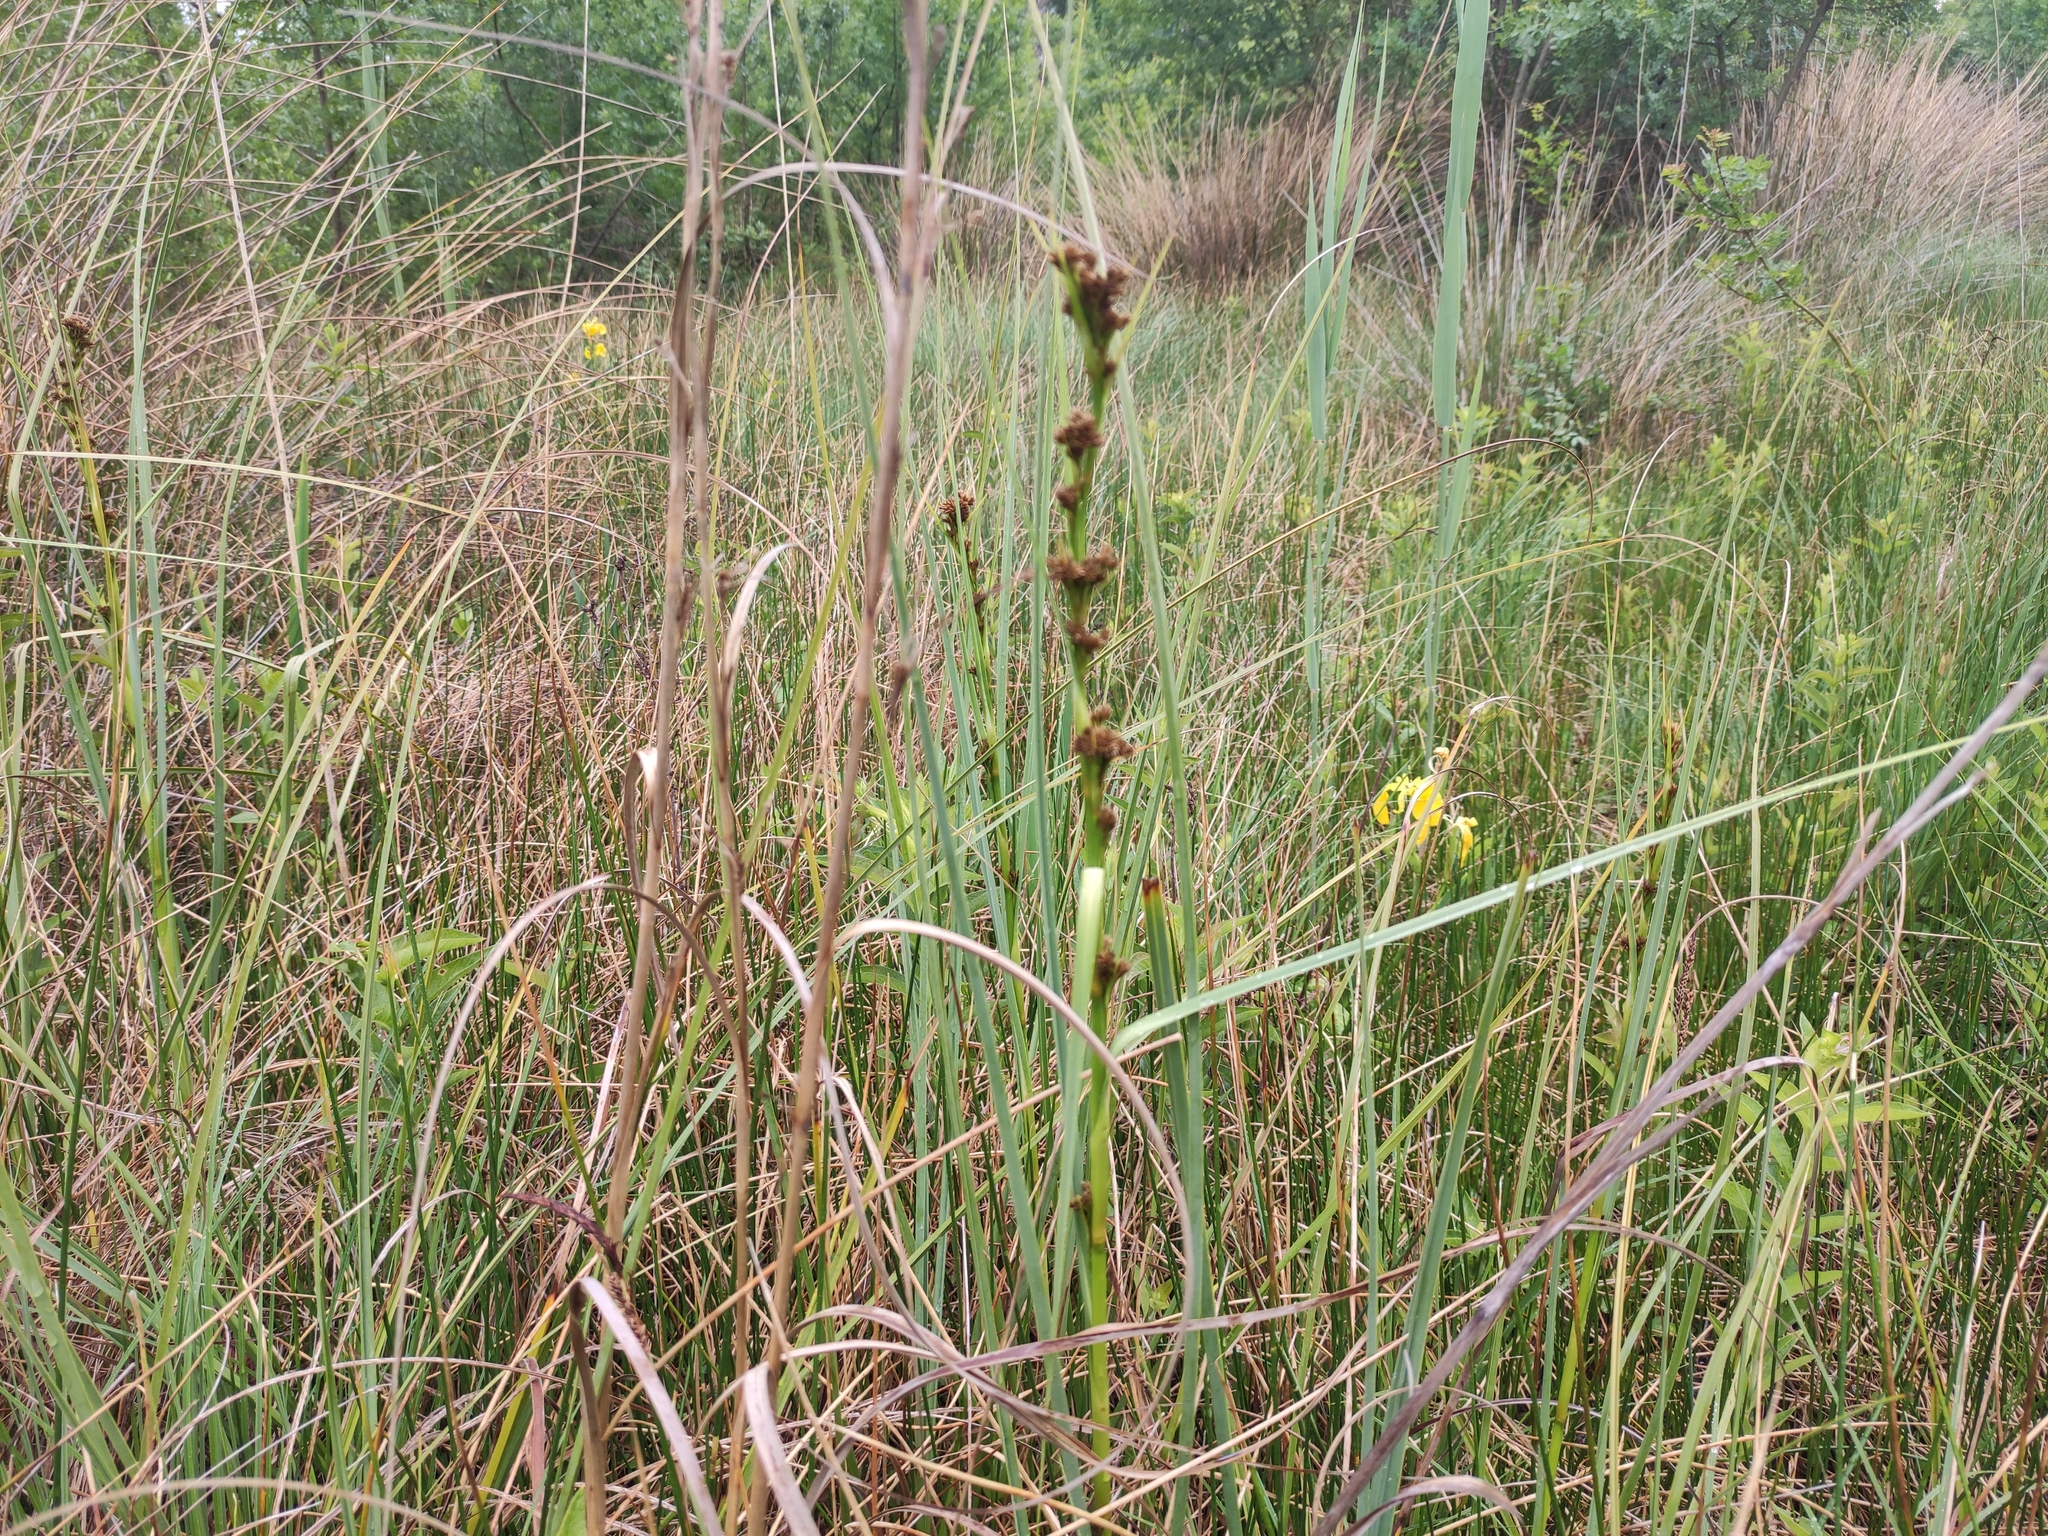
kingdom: Plantae
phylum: Tracheophyta
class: Liliopsida
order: Poales
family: Cyperaceae
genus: Cladium
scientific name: Cladium mariscus
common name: Great fen-sedge
